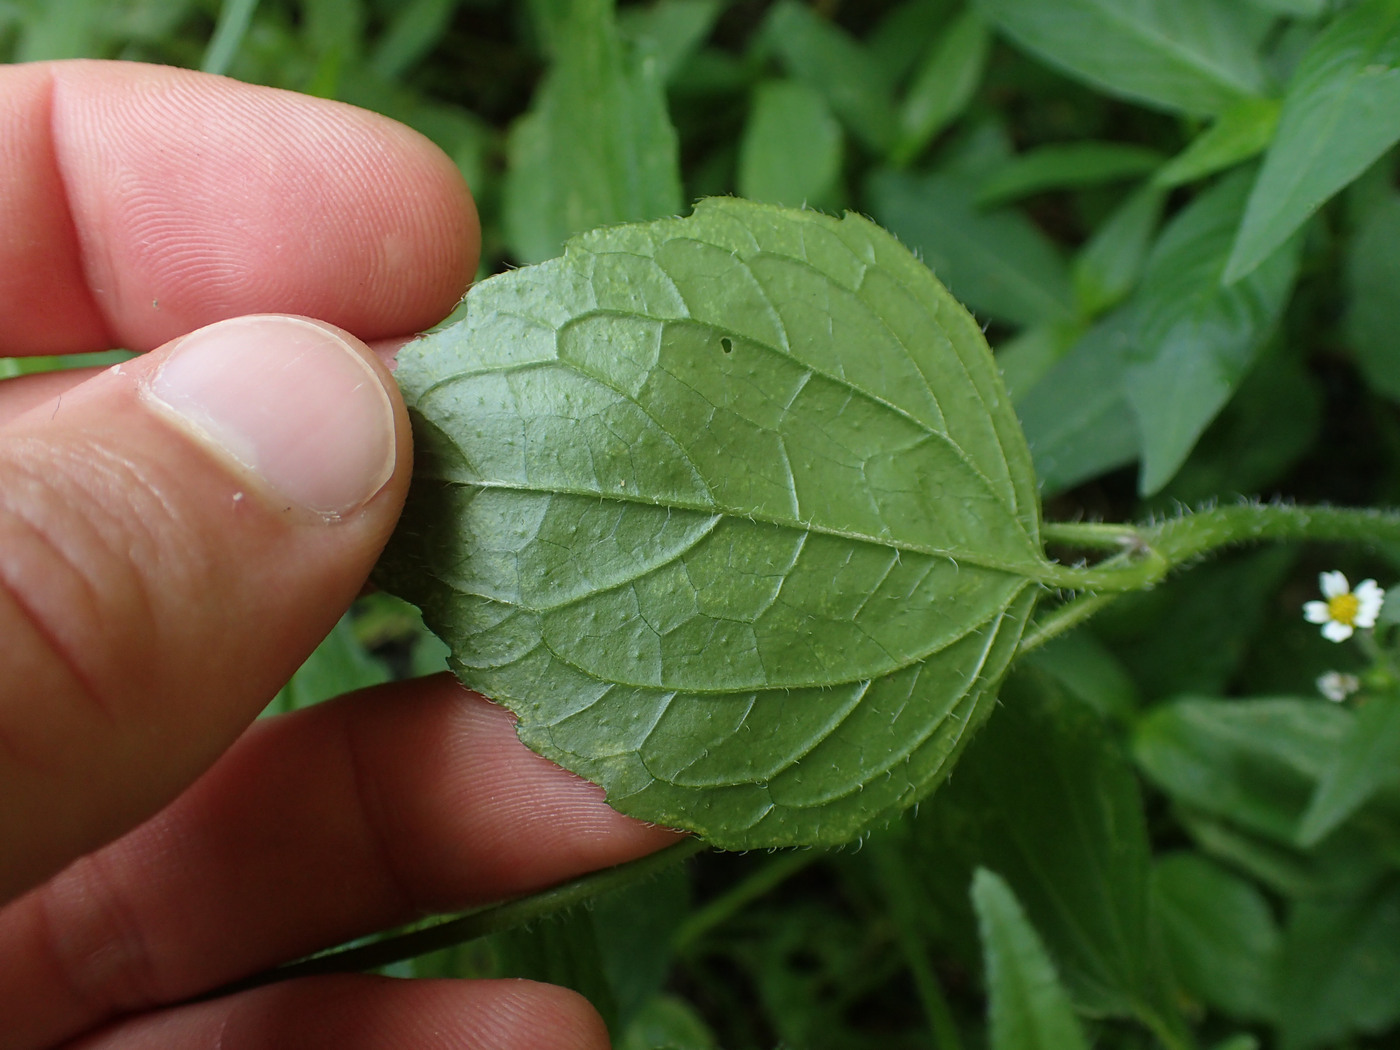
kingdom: Plantae
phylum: Tracheophyta
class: Magnoliopsida
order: Asterales
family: Asteraceae
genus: Galinsoga
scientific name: Galinsoga quadriradiata
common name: Shaggy soldier
